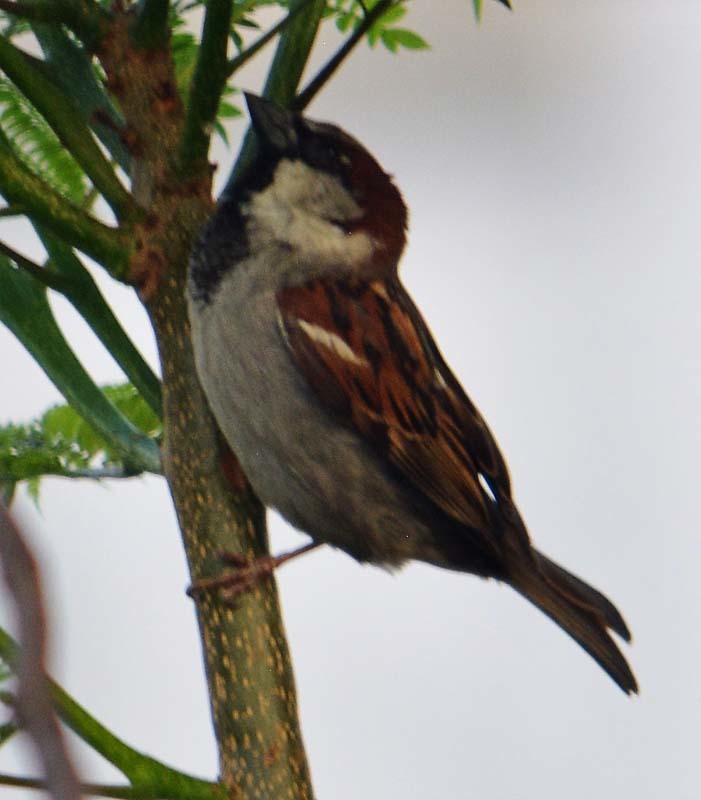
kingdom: Animalia
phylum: Chordata
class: Aves
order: Passeriformes
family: Passeridae
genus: Passer
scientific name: Passer domesticus
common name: House sparrow
